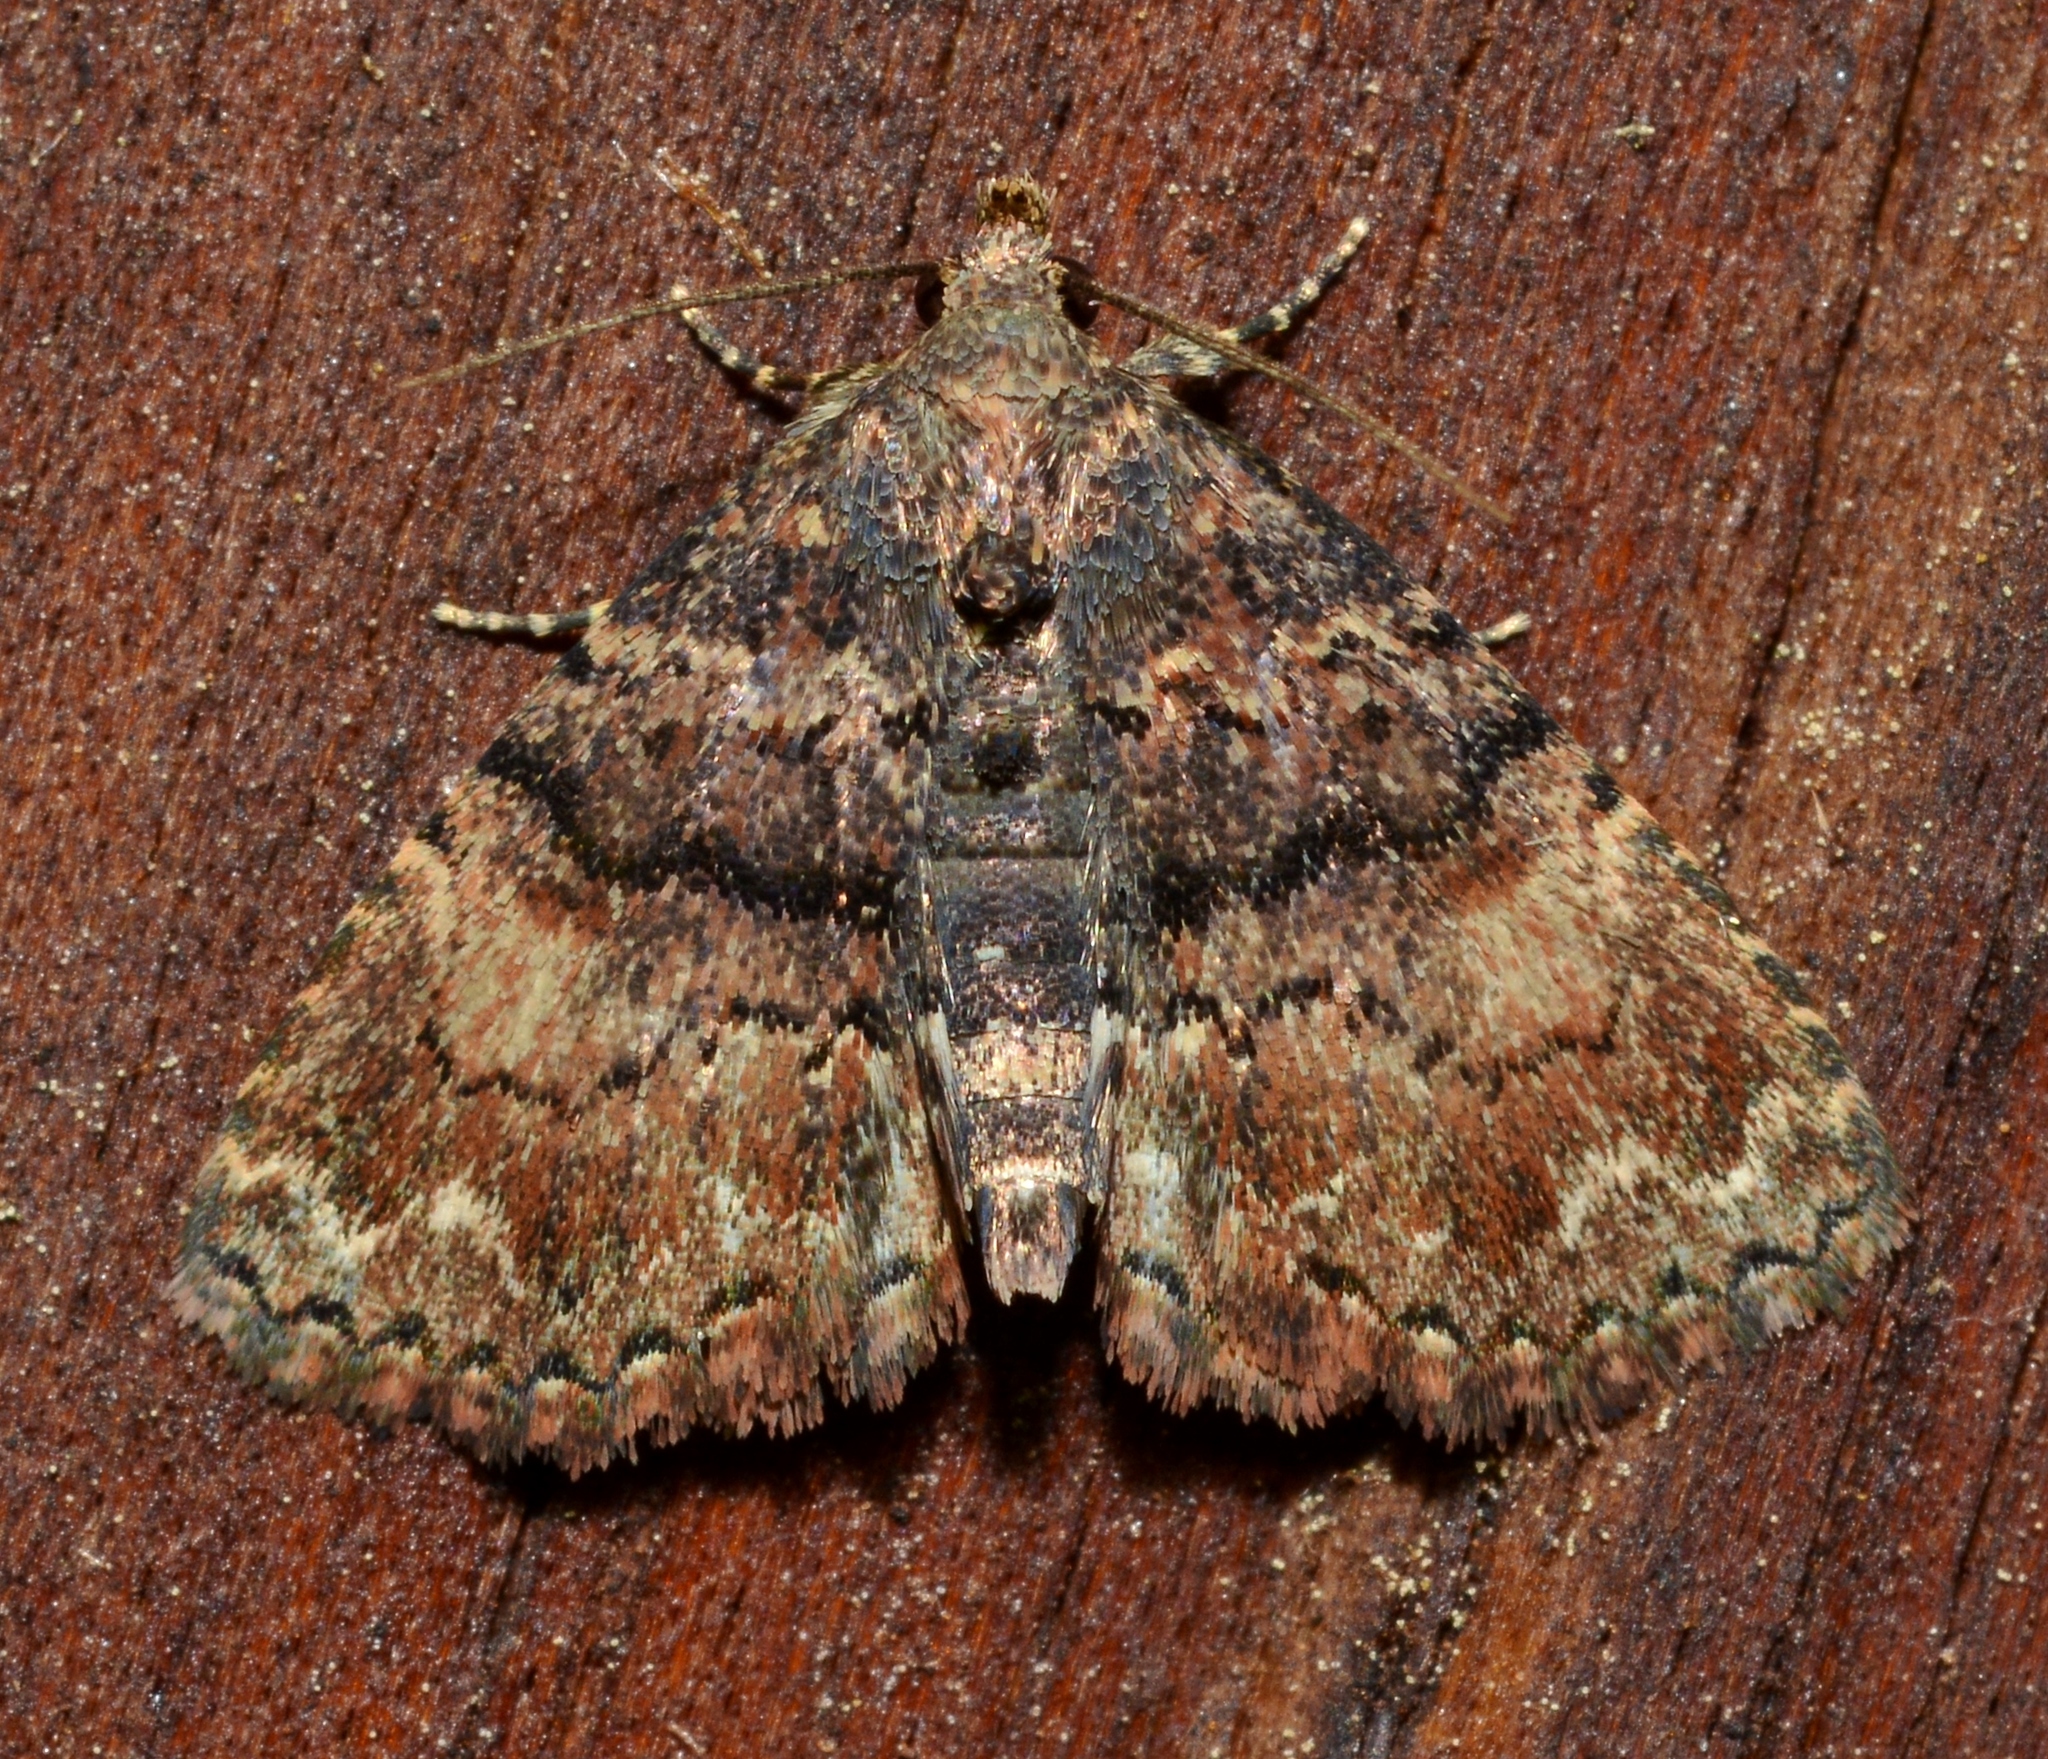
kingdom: Animalia
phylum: Arthropoda
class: Insecta
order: Lepidoptera
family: Erebidae
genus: Metalectra
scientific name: Metalectra richardsi
